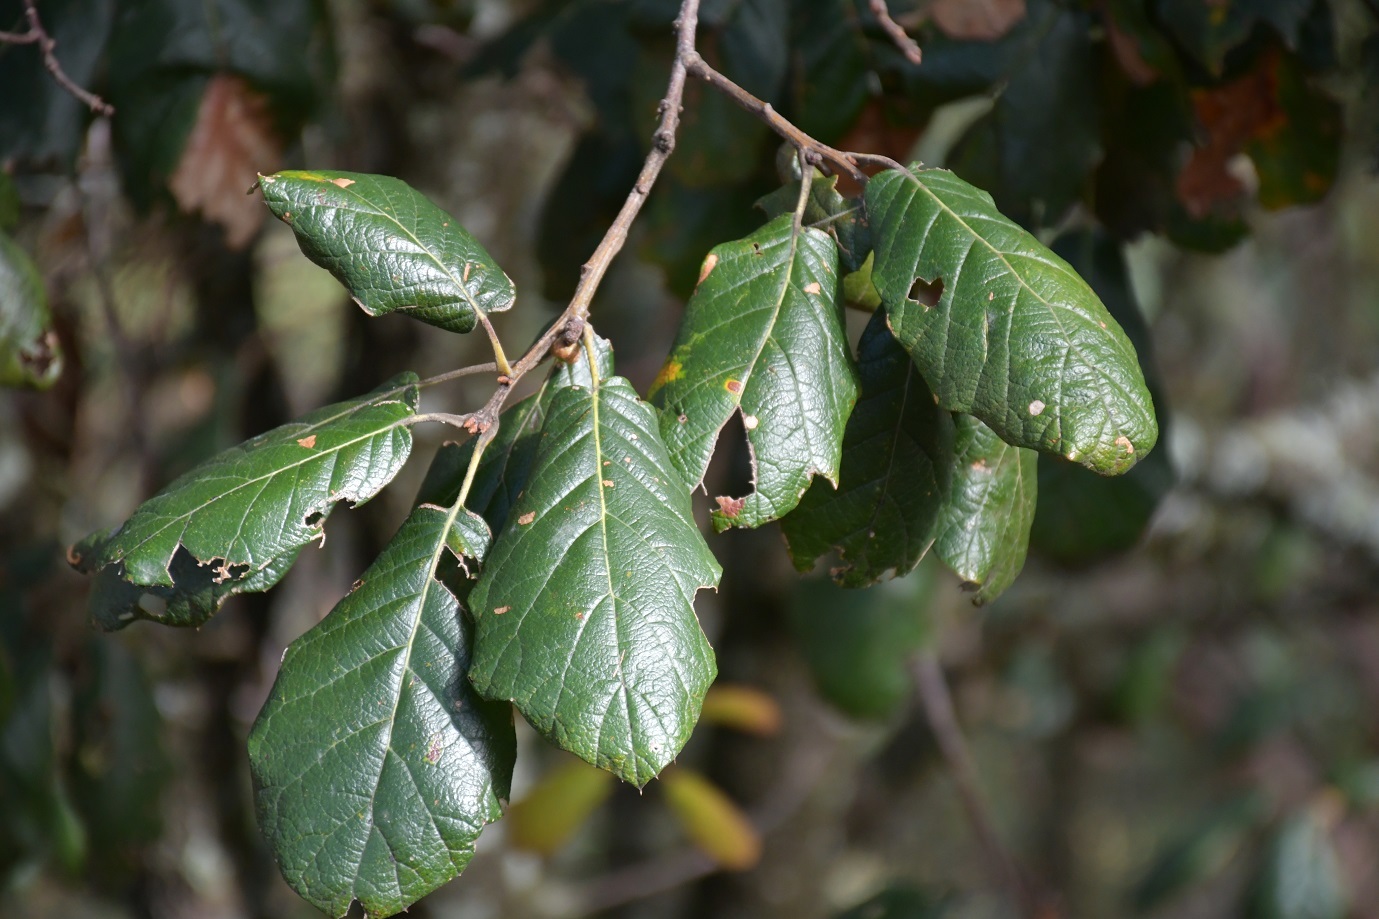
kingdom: Plantae
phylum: Tracheophyta
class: Magnoliopsida
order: Fagales
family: Fagaceae
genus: Quercus
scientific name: Quercus crassifolia
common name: Leather leaf mexican oak
